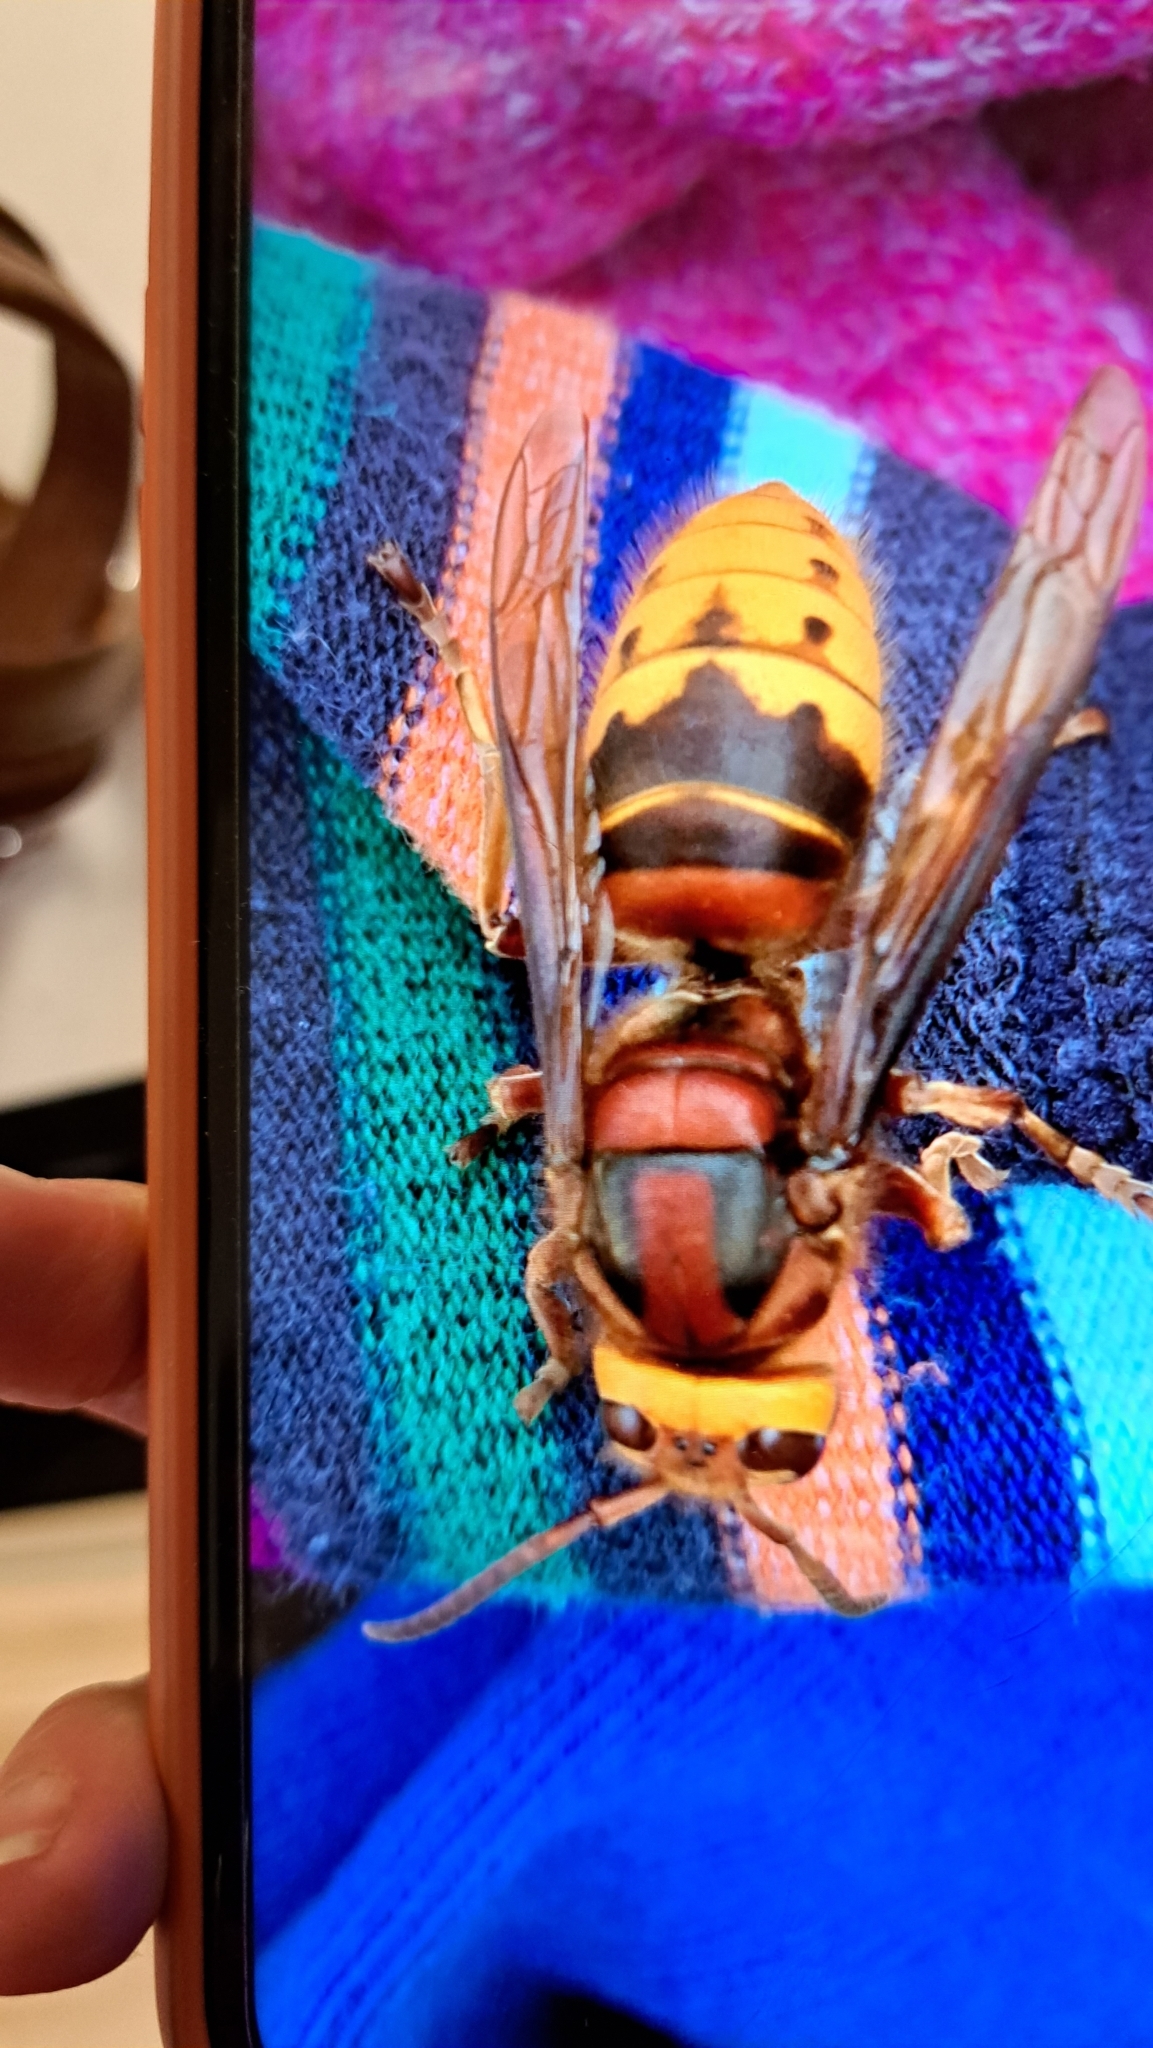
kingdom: Animalia
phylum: Arthropoda
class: Insecta
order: Hymenoptera
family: Vespidae
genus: Vespa
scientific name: Vespa crabro
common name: Hornet
